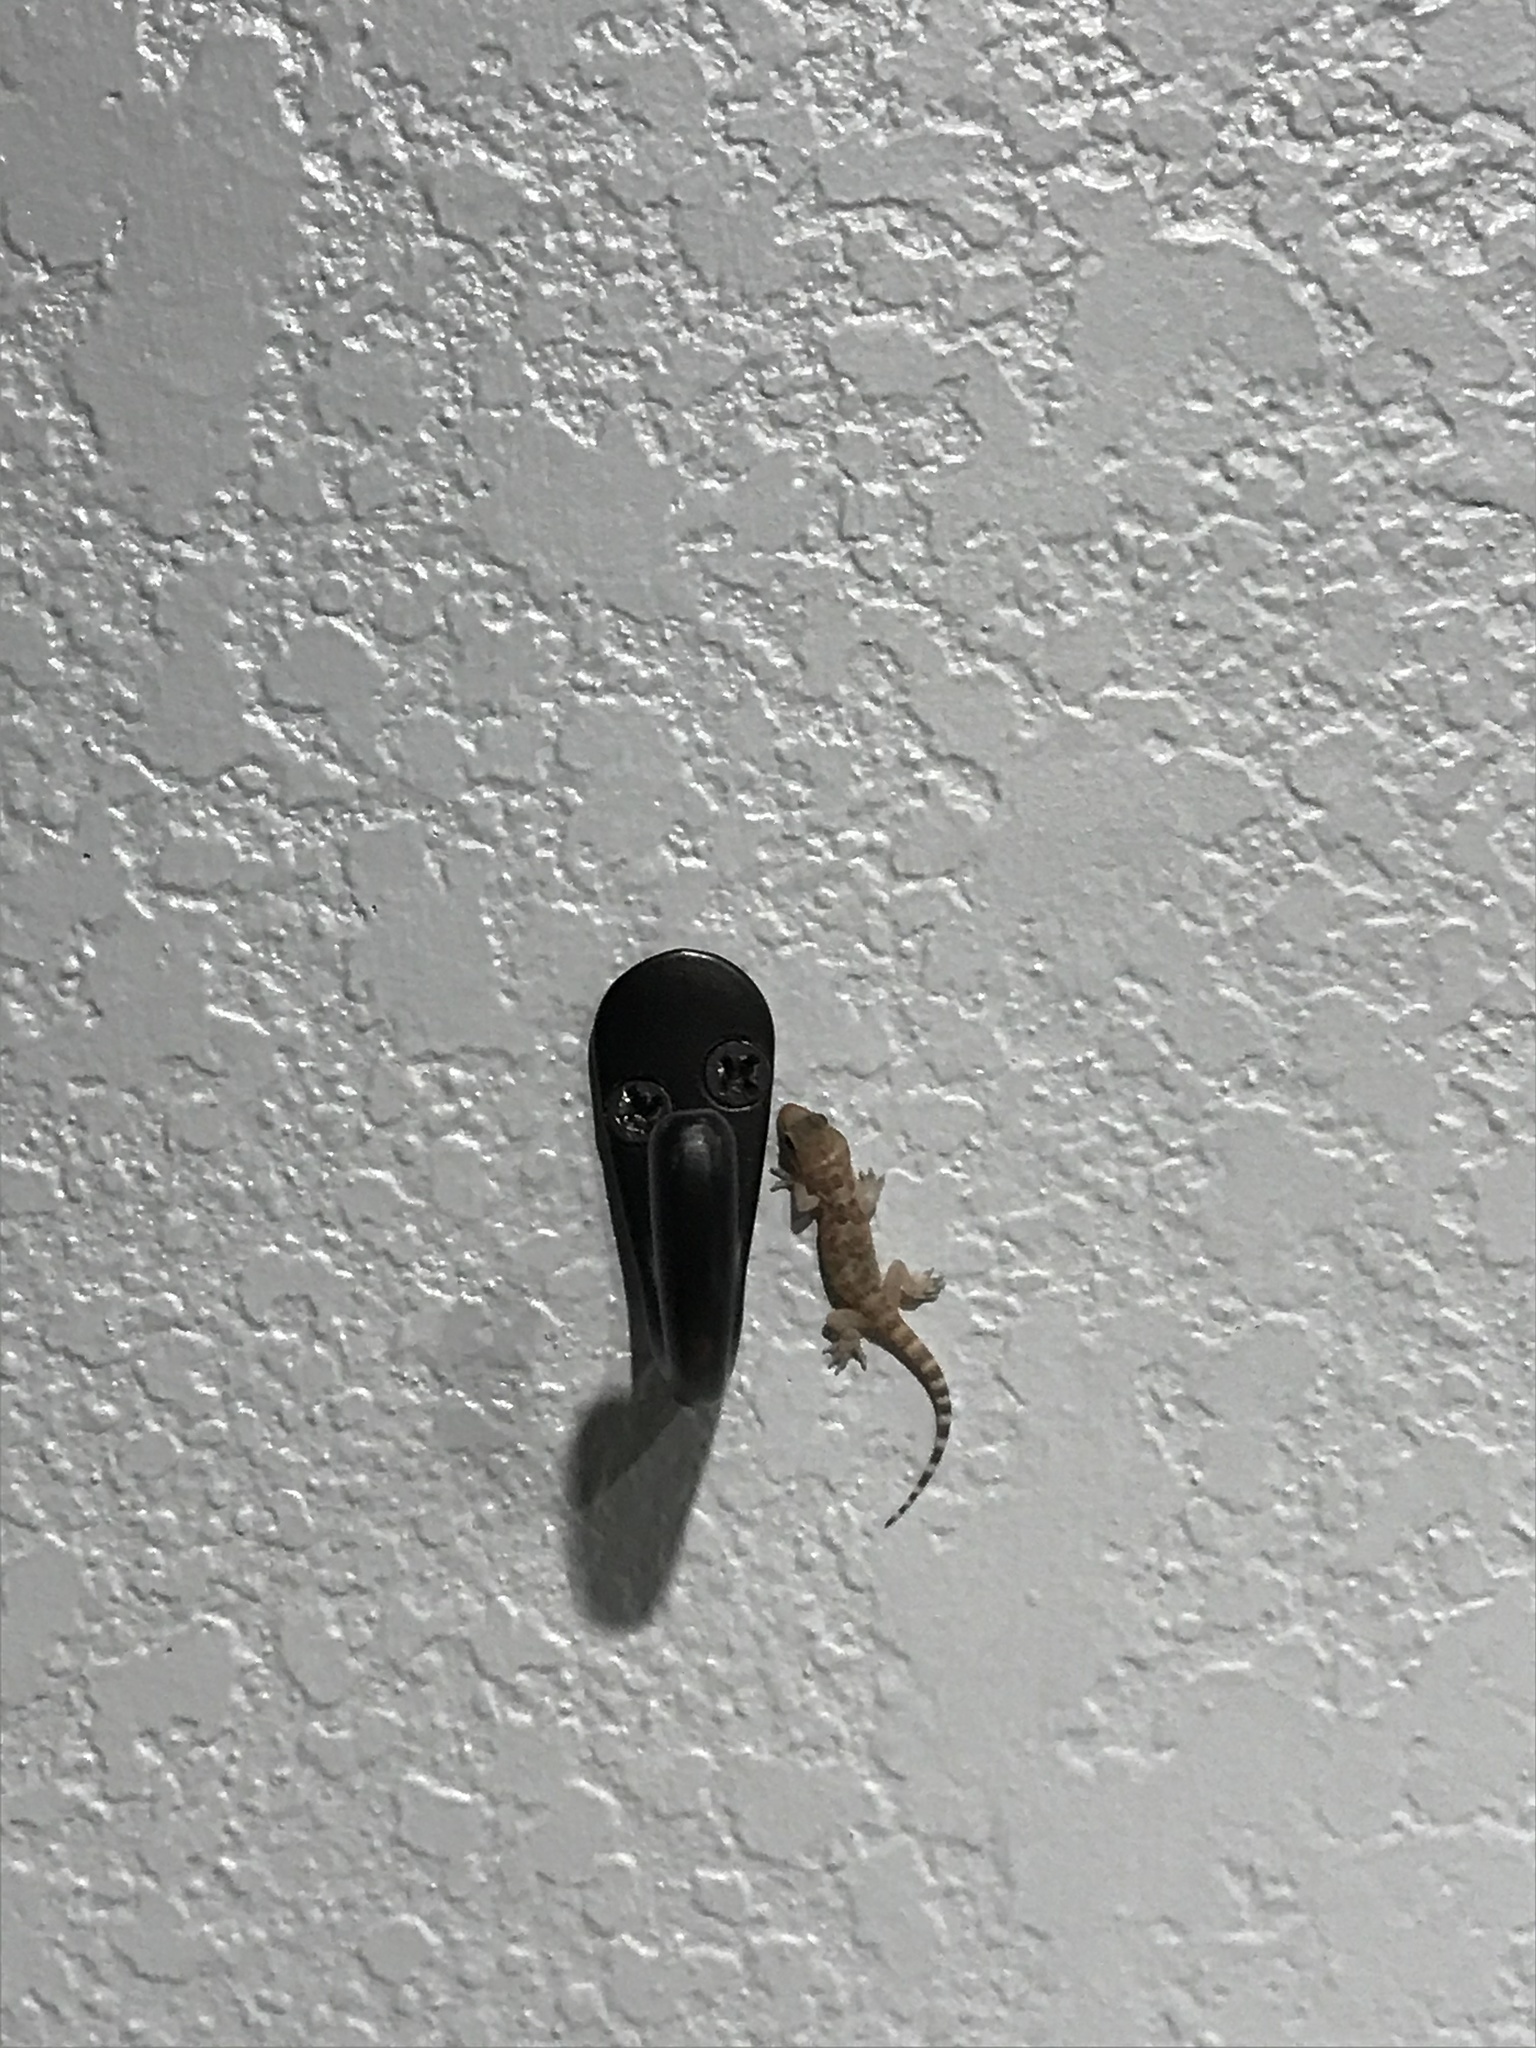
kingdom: Animalia
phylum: Chordata
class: Squamata
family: Gekkonidae
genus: Hemidactylus
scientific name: Hemidactylus turcicus
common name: Turkish gecko
